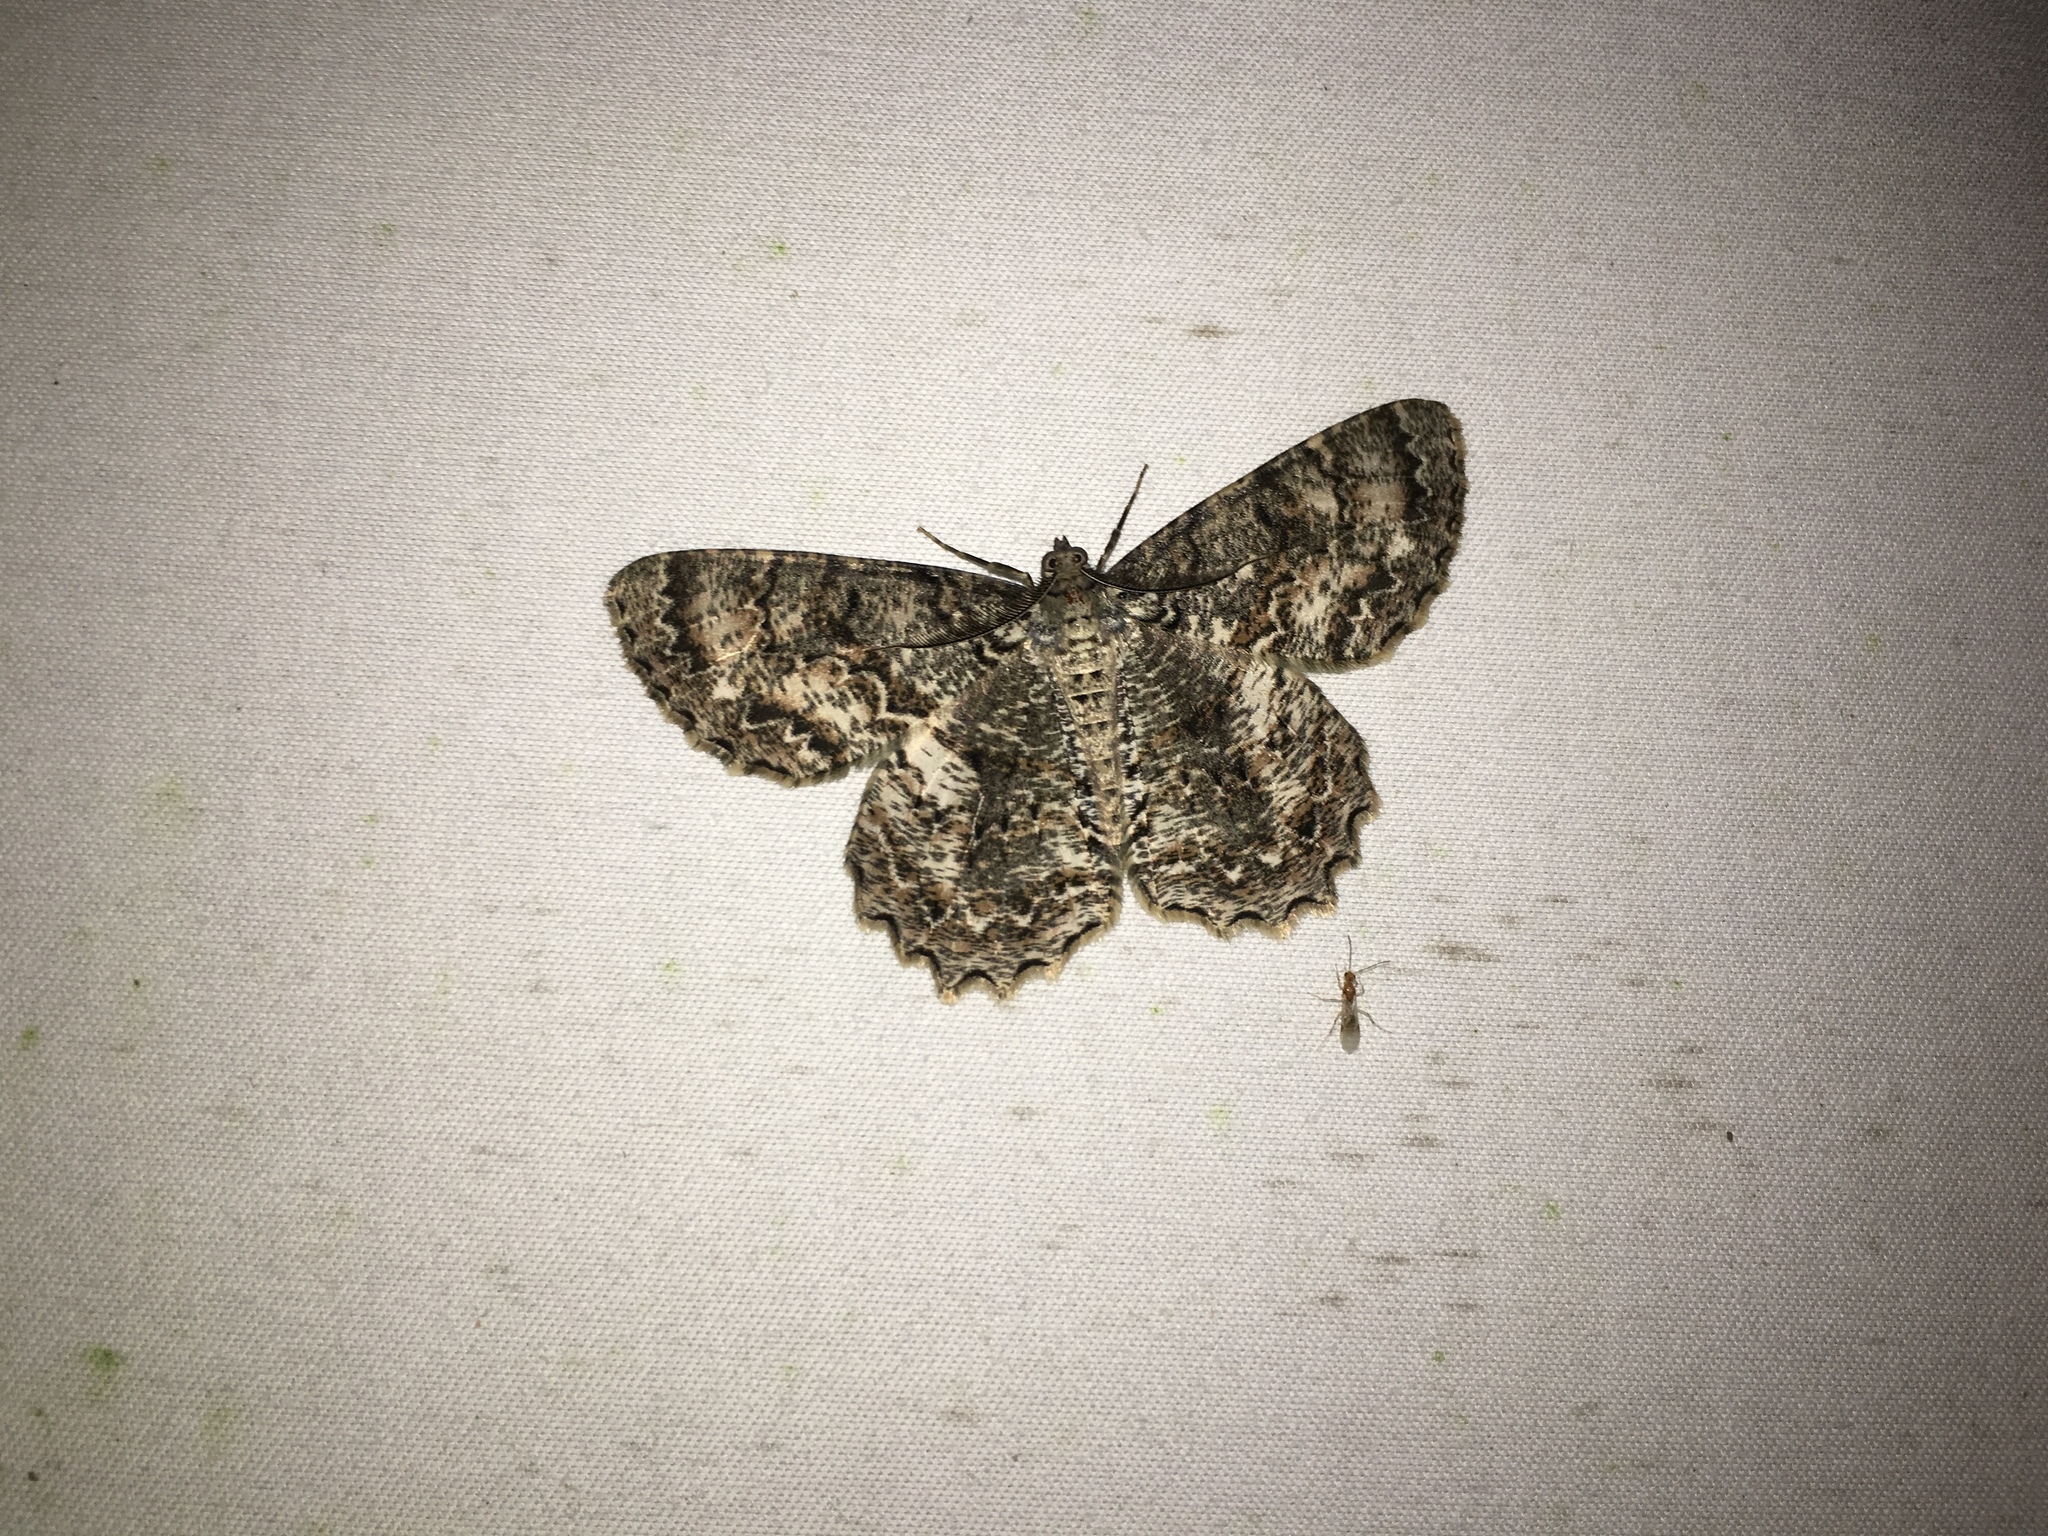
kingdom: Animalia
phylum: Arthropoda
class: Insecta
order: Lepidoptera
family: Geometridae
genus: Epimecis
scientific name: Epimecis hortaria
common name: Tulip-tree beauty
